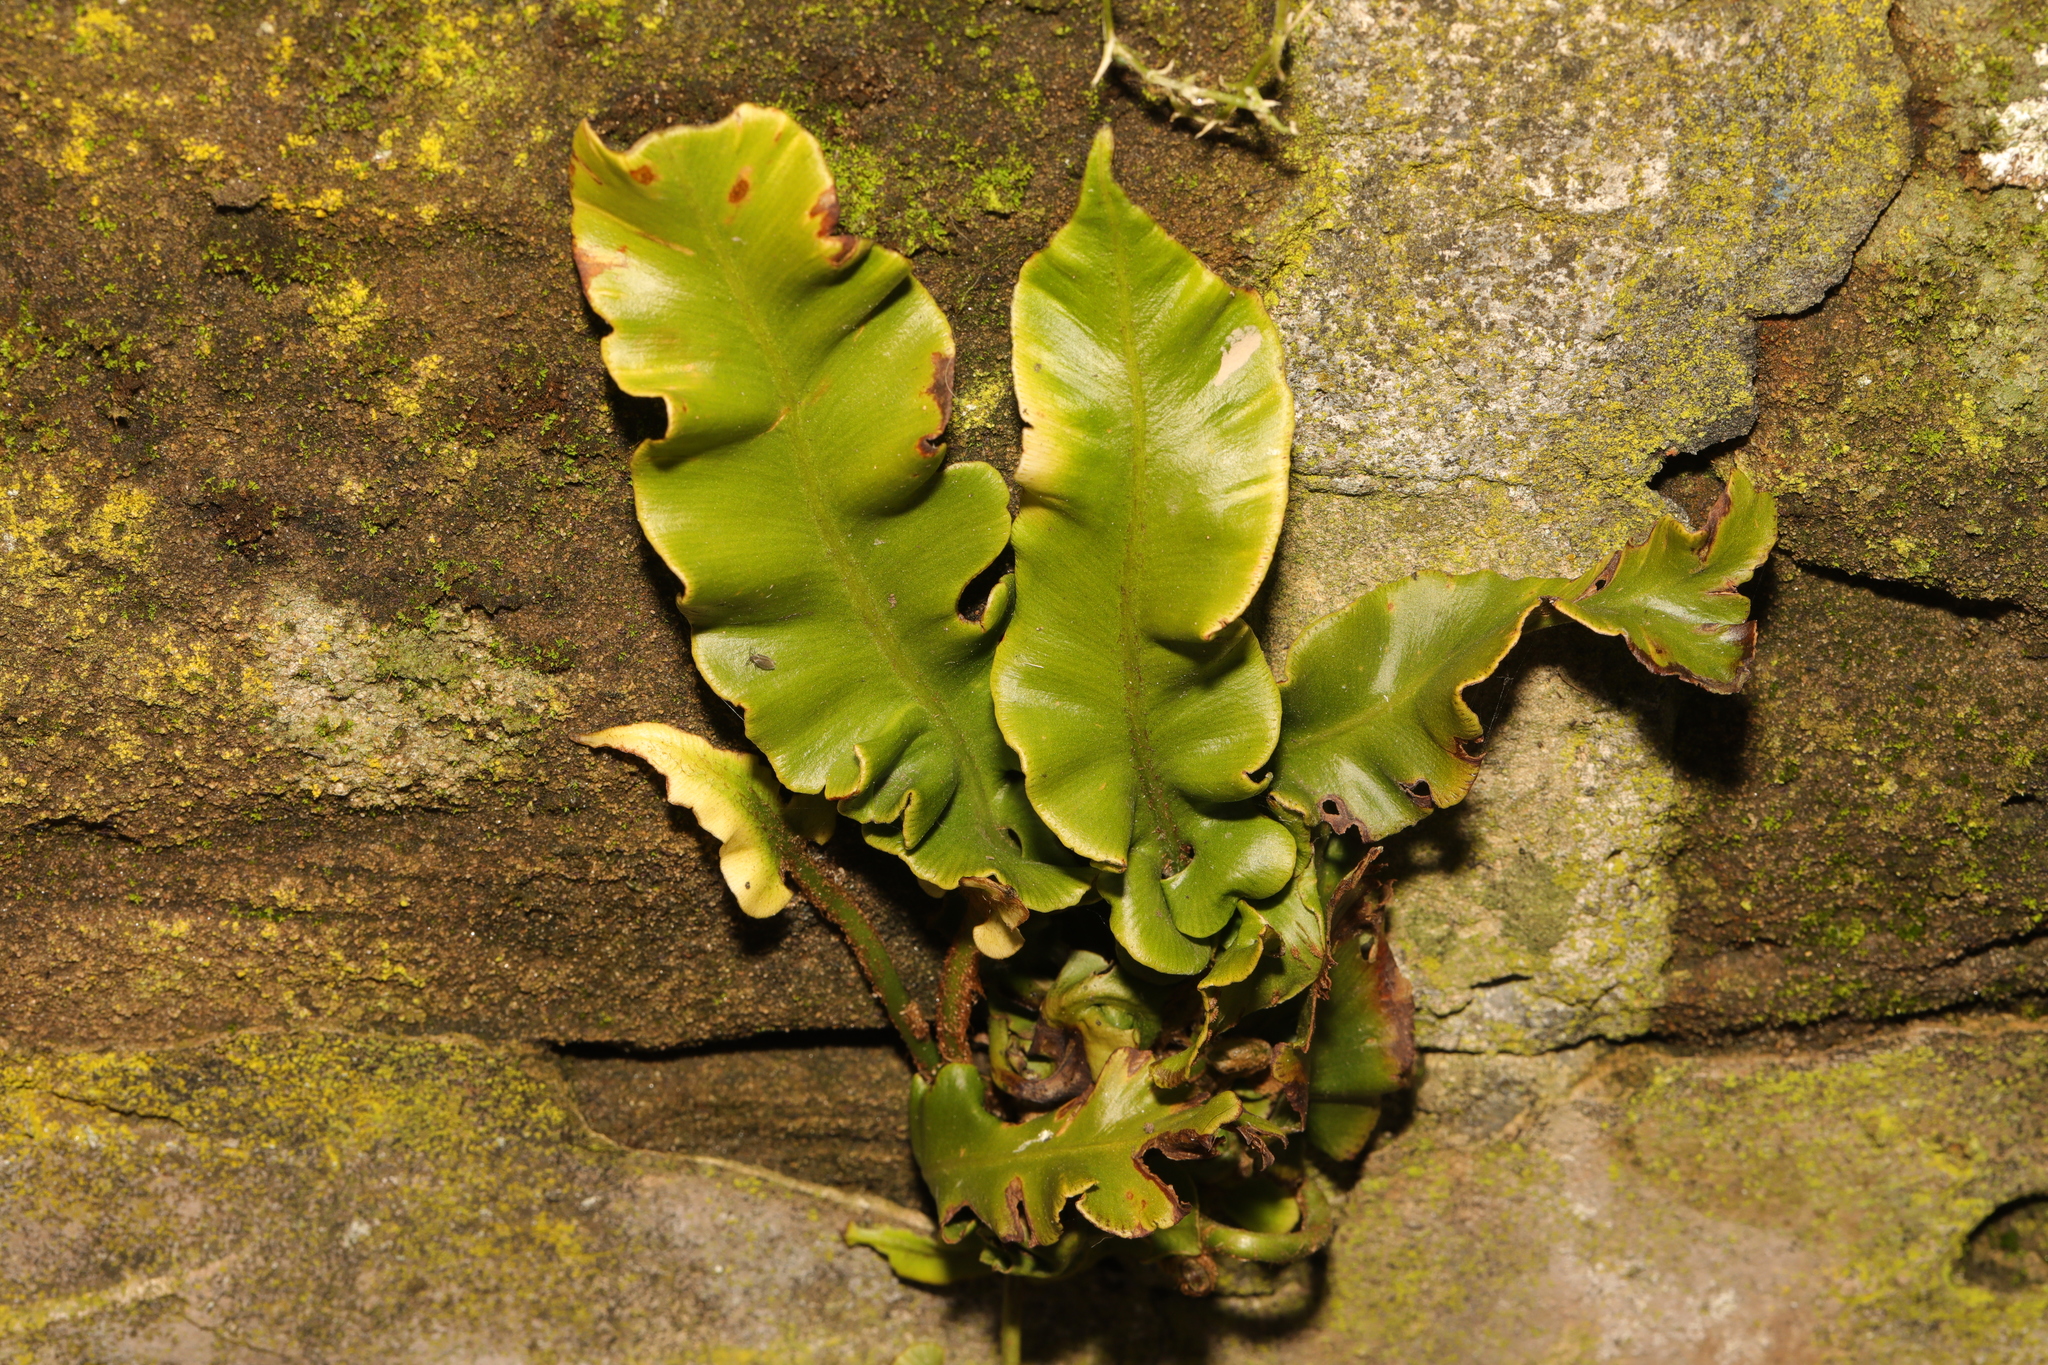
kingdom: Plantae
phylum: Tracheophyta
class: Polypodiopsida
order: Polypodiales
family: Aspleniaceae
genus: Asplenium
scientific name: Asplenium scolopendrium
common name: Hart's-tongue fern
